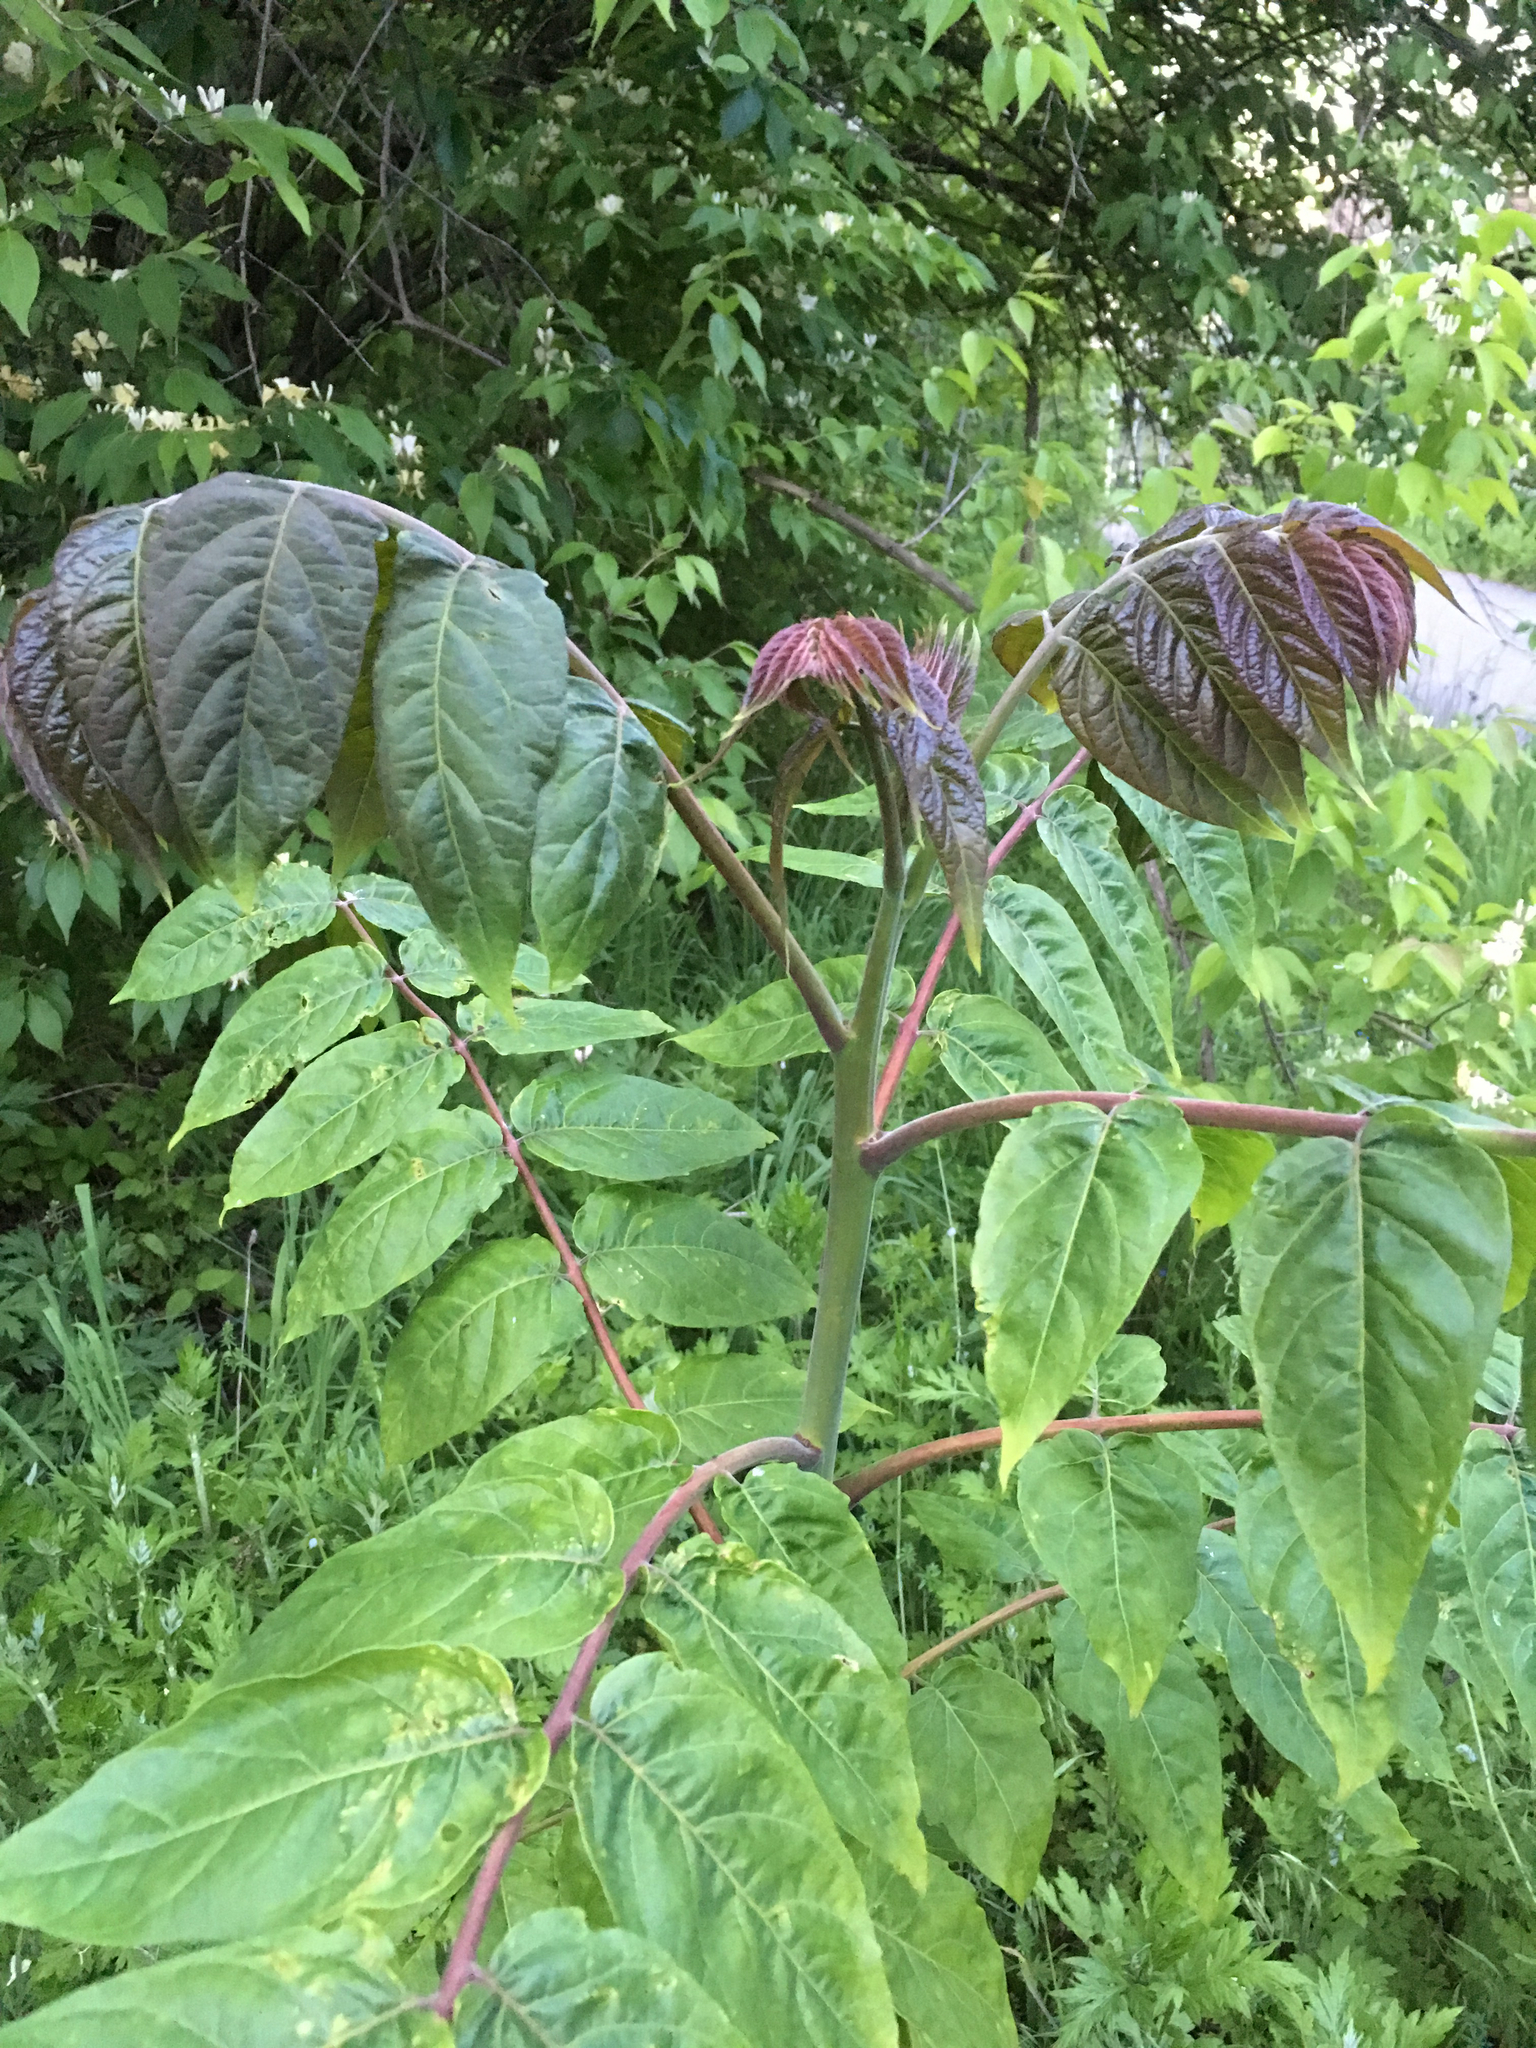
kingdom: Plantae
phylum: Tracheophyta
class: Magnoliopsida
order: Sapindales
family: Simaroubaceae
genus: Ailanthus
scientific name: Ailanthus altissima
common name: Tree-of-heaven
